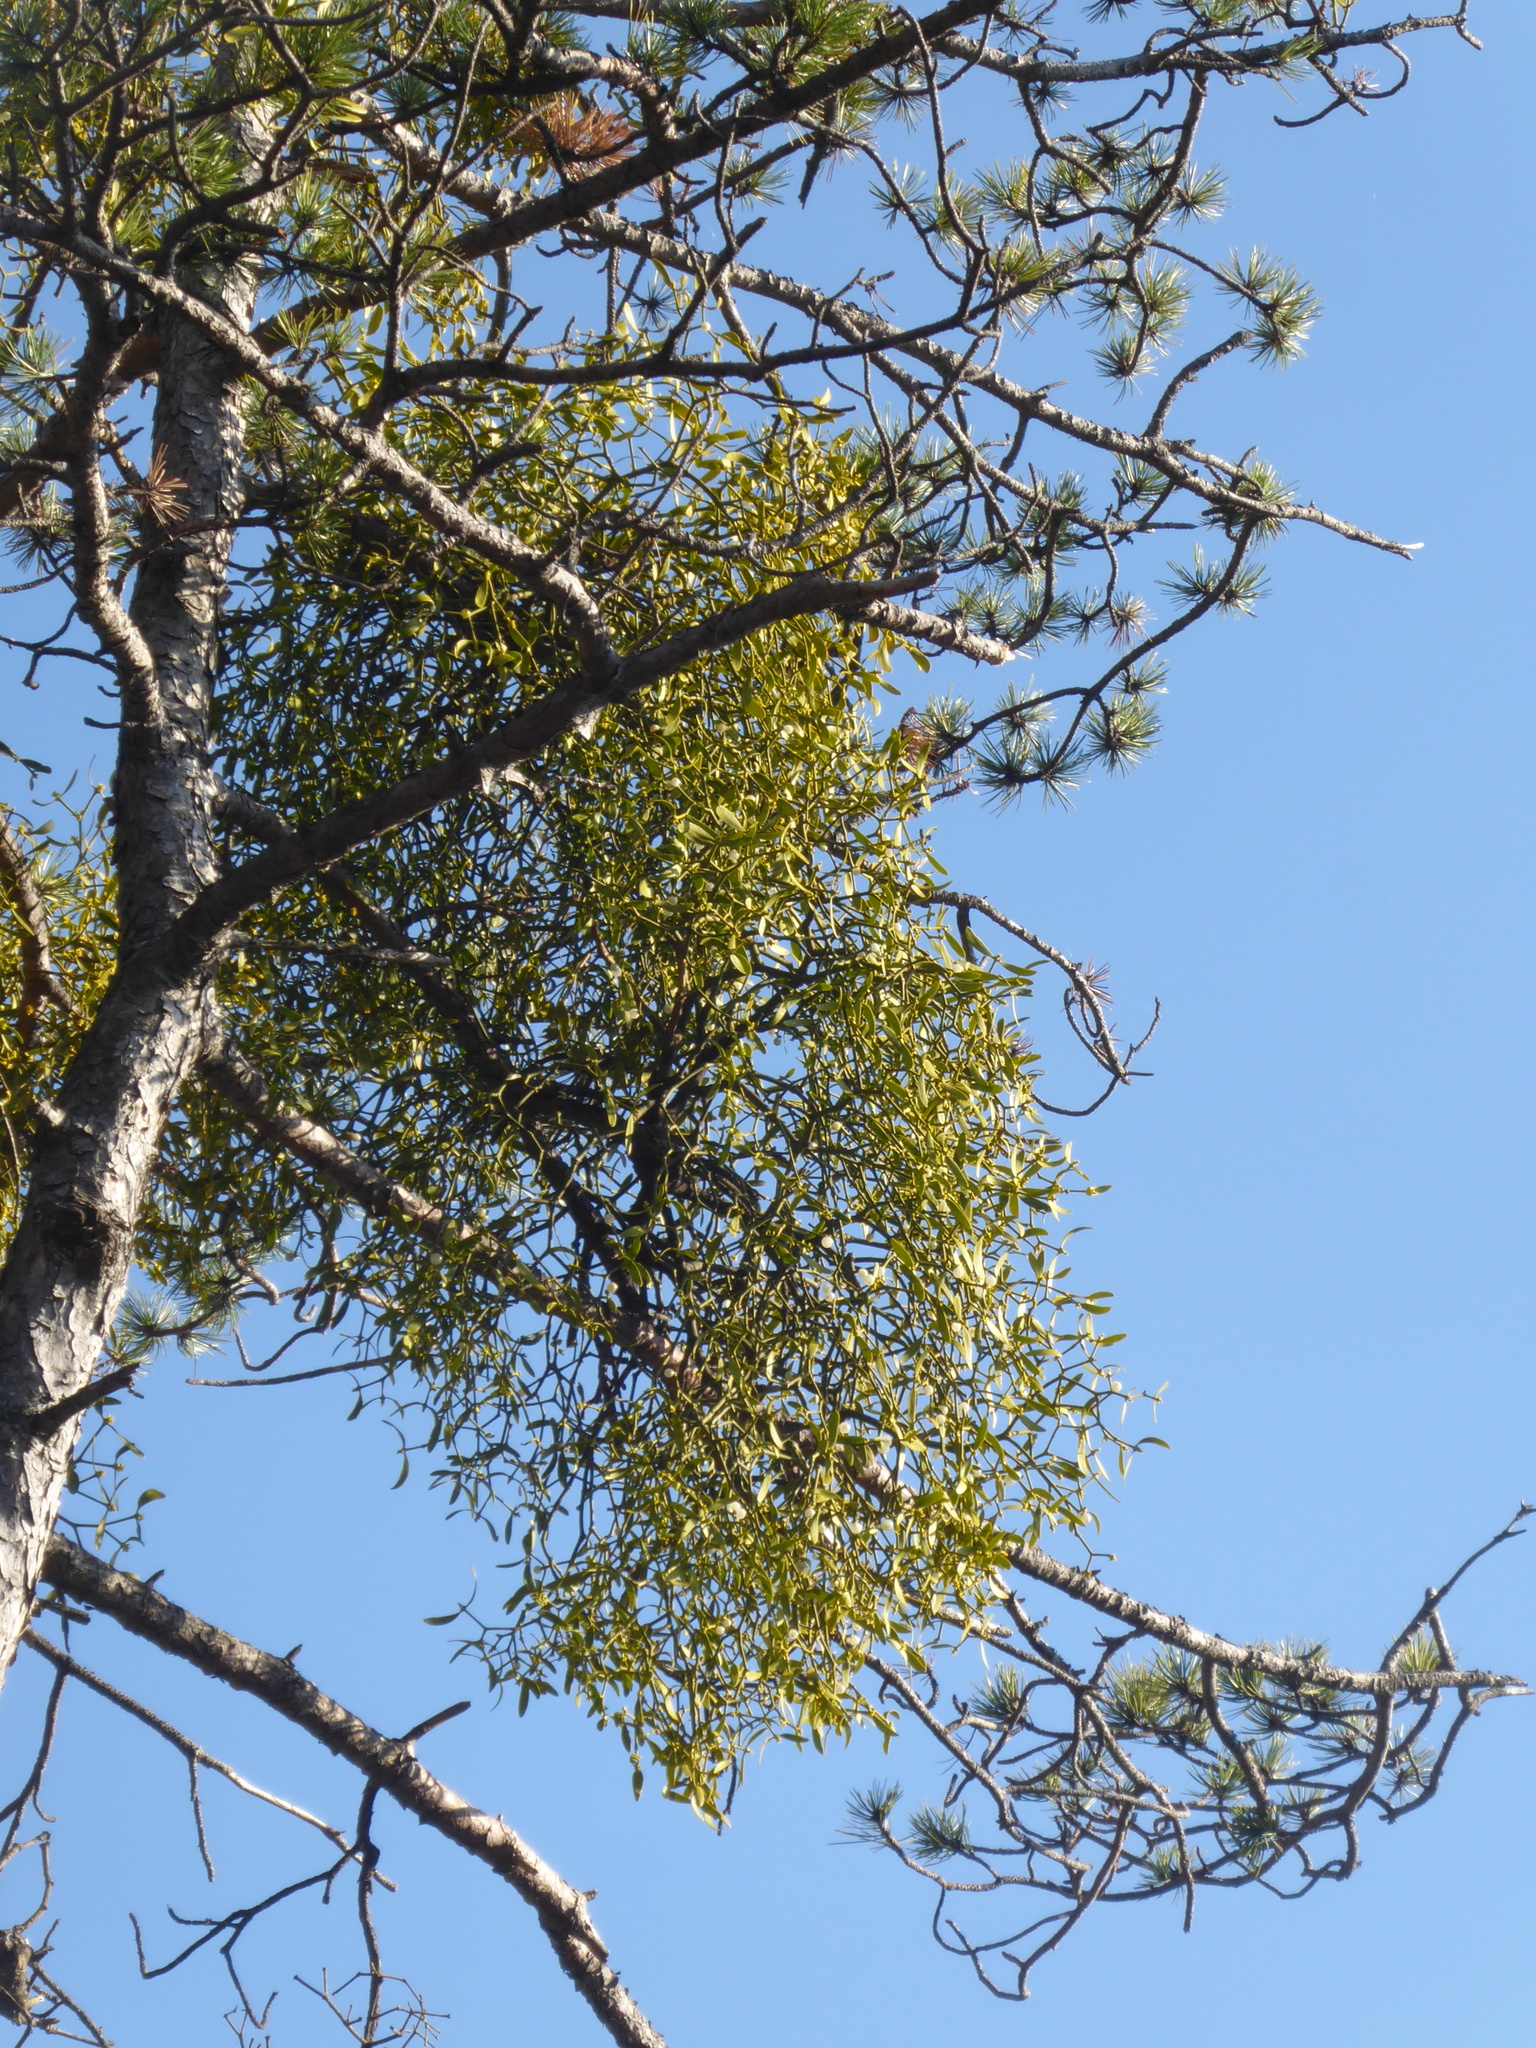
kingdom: Plantae
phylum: Tracheophyta
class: Magnoliopsida
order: Santalales
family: Viscaceae
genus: Viscum
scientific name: Viscum laxum
